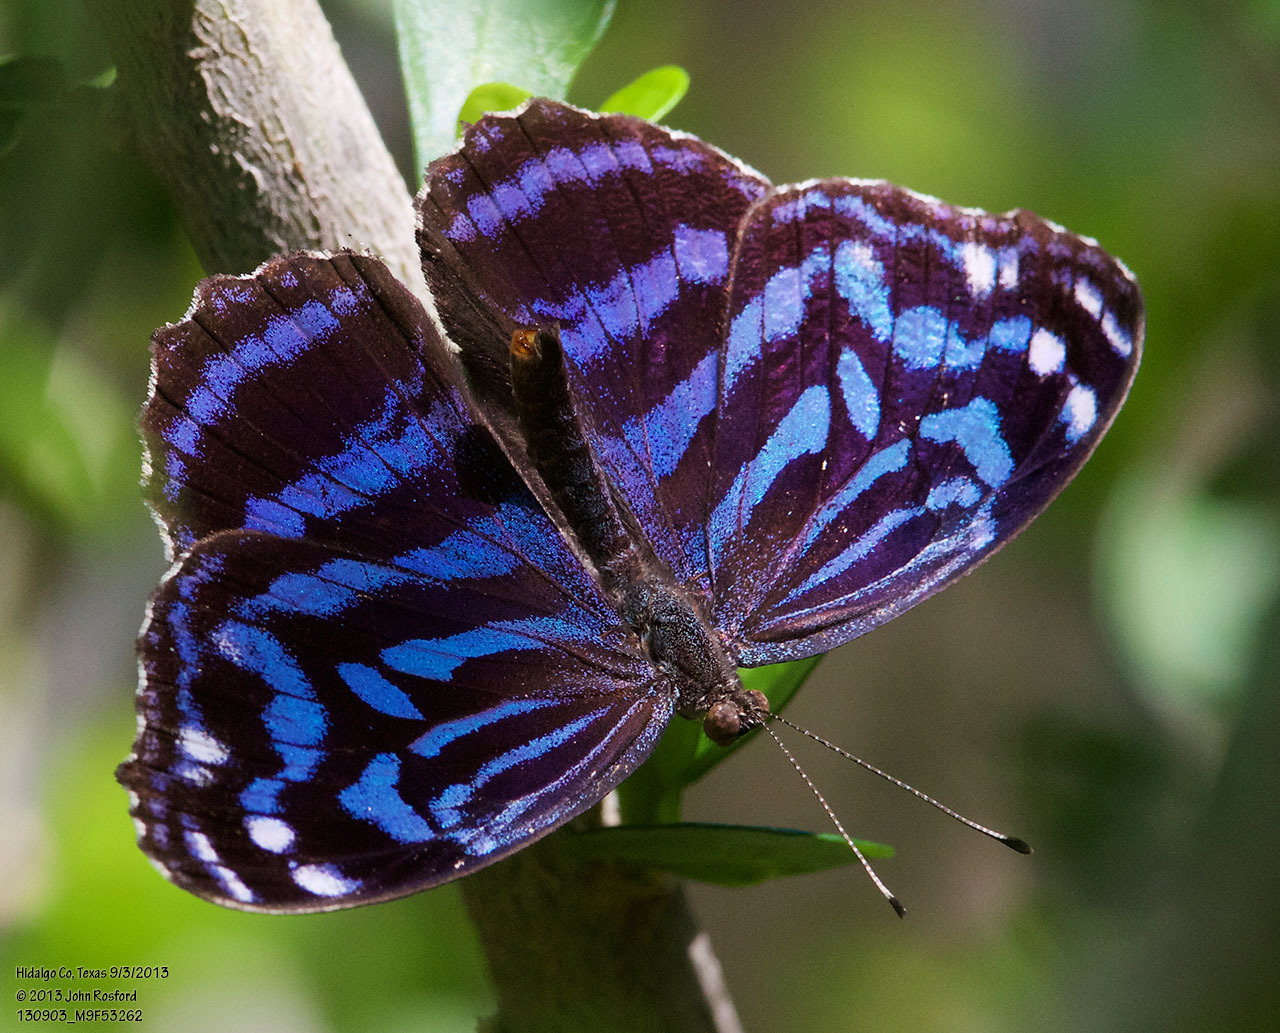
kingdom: Animalia
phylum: Arthropoda
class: Insecta
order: Lepidoptera
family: Nymphalidae
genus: Myscelia
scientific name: Myscelia ethusa
